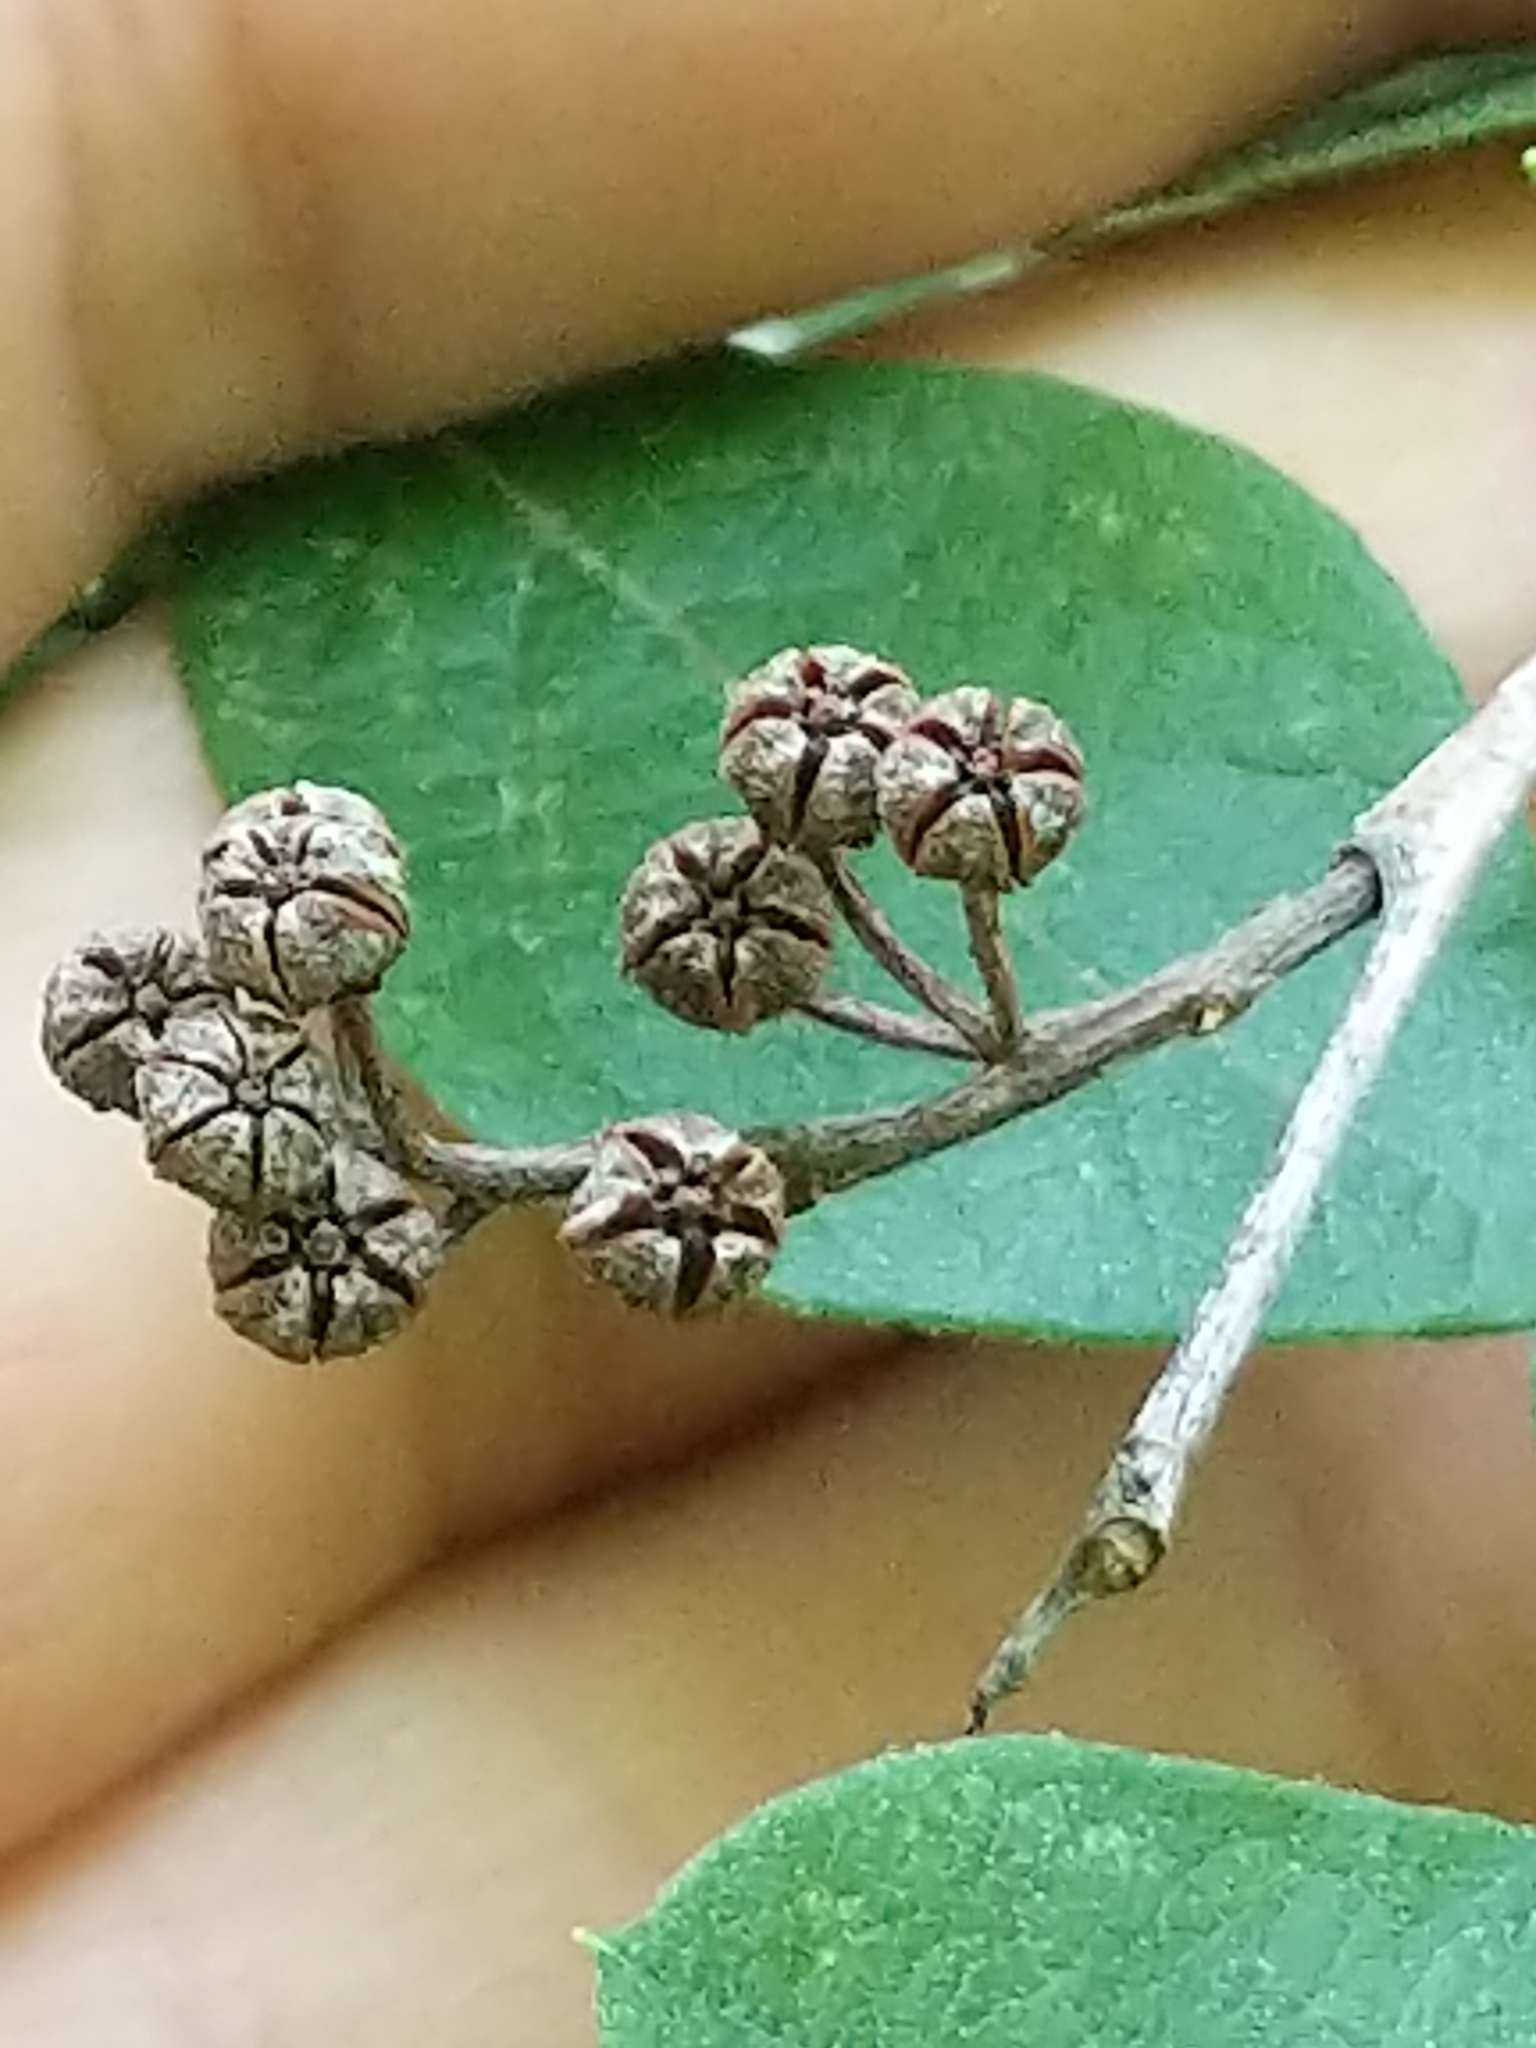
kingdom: Plantae
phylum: Tracheophyta
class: Magnoliopsida
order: Ericales
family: Ericaceae
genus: Lyonia
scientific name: Lyonia ligustrina
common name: Maleberry
